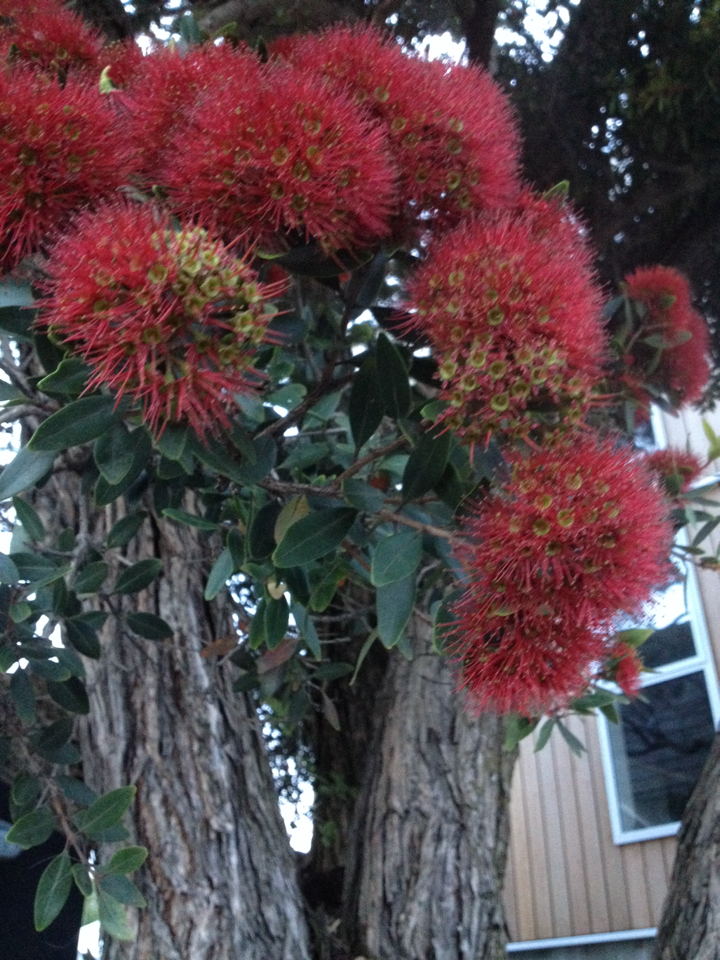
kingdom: Plantae
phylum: Tracheophyta
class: Magnoliopsida
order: Myrtales
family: Myrtaceae
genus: Metrosideros
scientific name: Metrosideros robusta
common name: Northern rata
